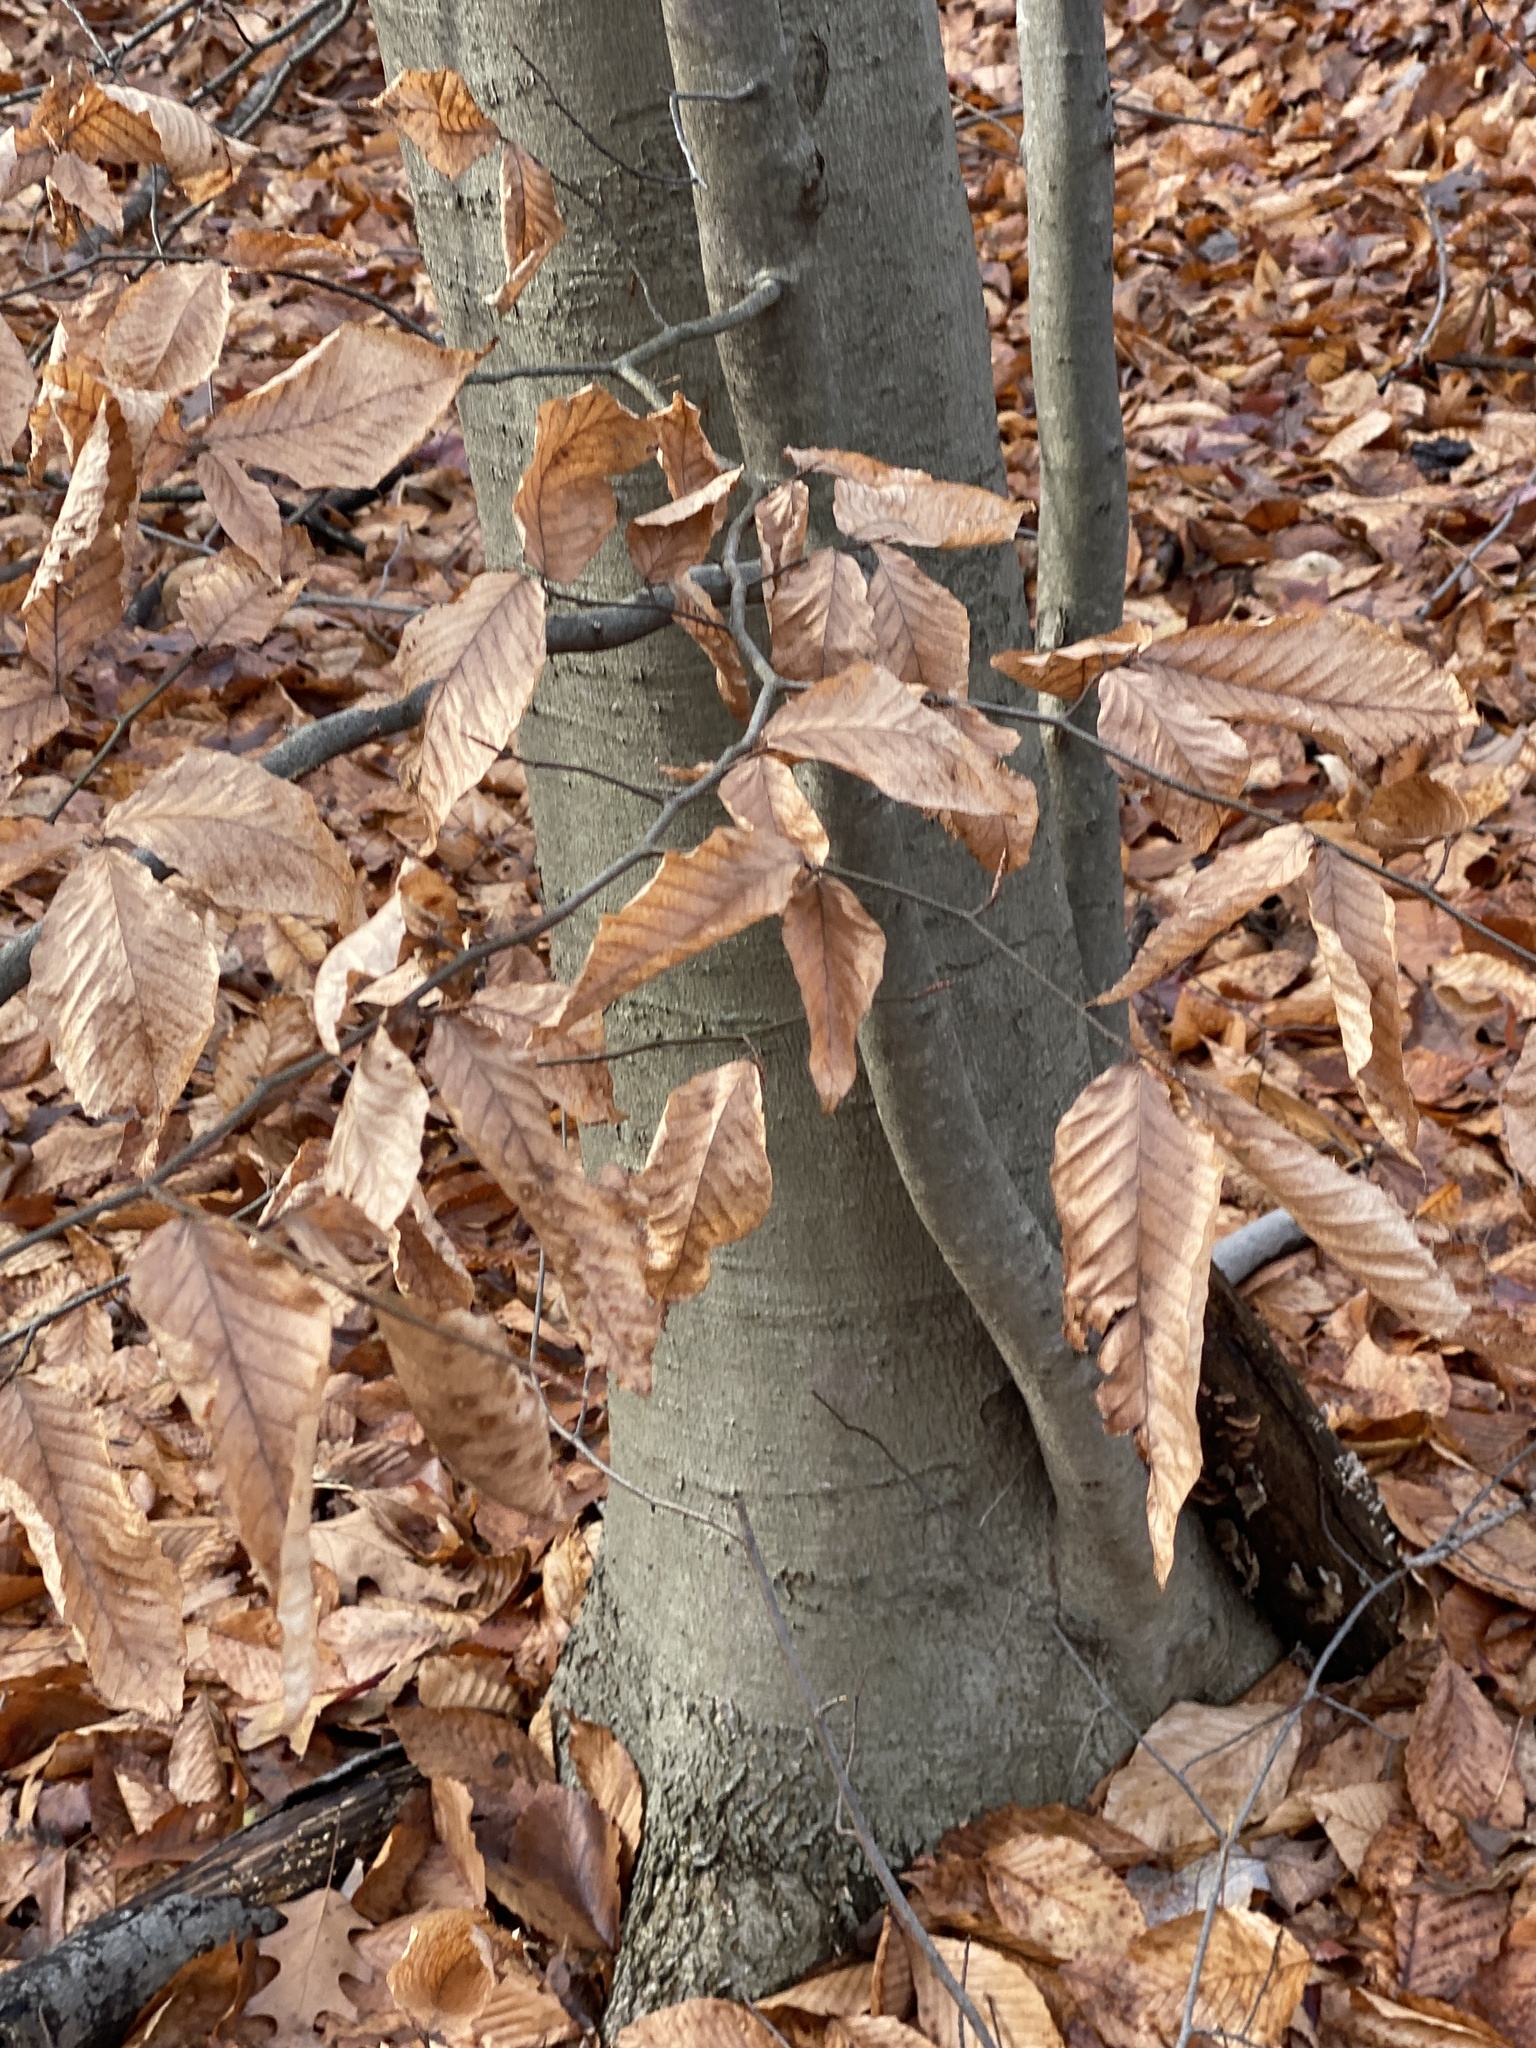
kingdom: Plantae
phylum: Tracheophyta
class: Magnoliopsida
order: Fagales
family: Fagaceae
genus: Fagus
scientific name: Fagus grandifolia
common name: American beech
